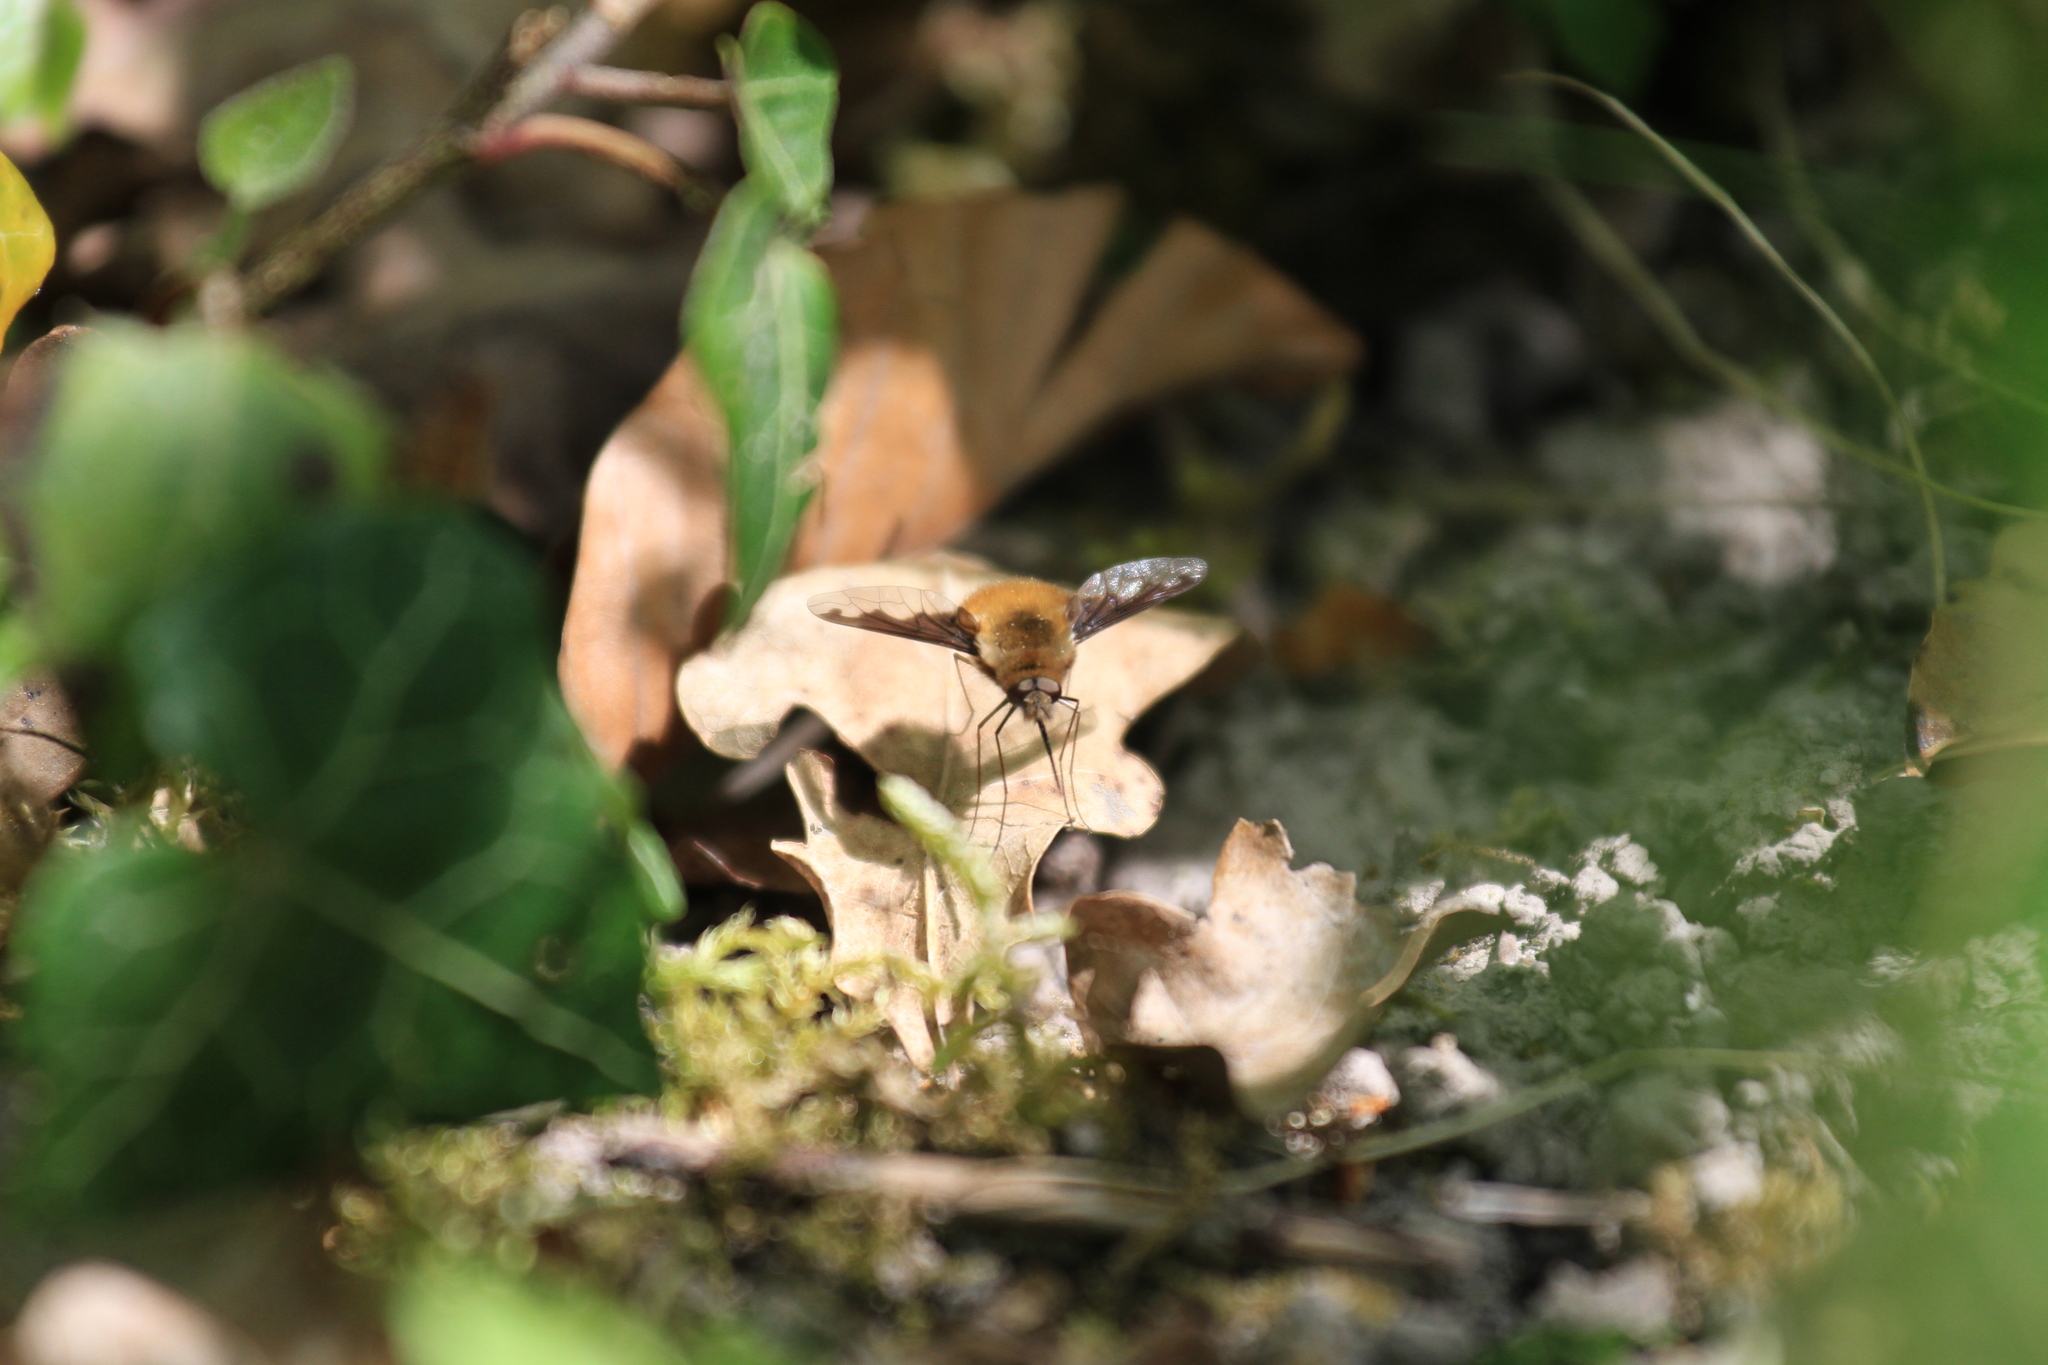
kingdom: Animalia
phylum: Arthropoda
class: Insecta
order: Diptera
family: Bombyliidae
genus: Bombylius
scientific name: Bombylius major
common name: Bee fly
